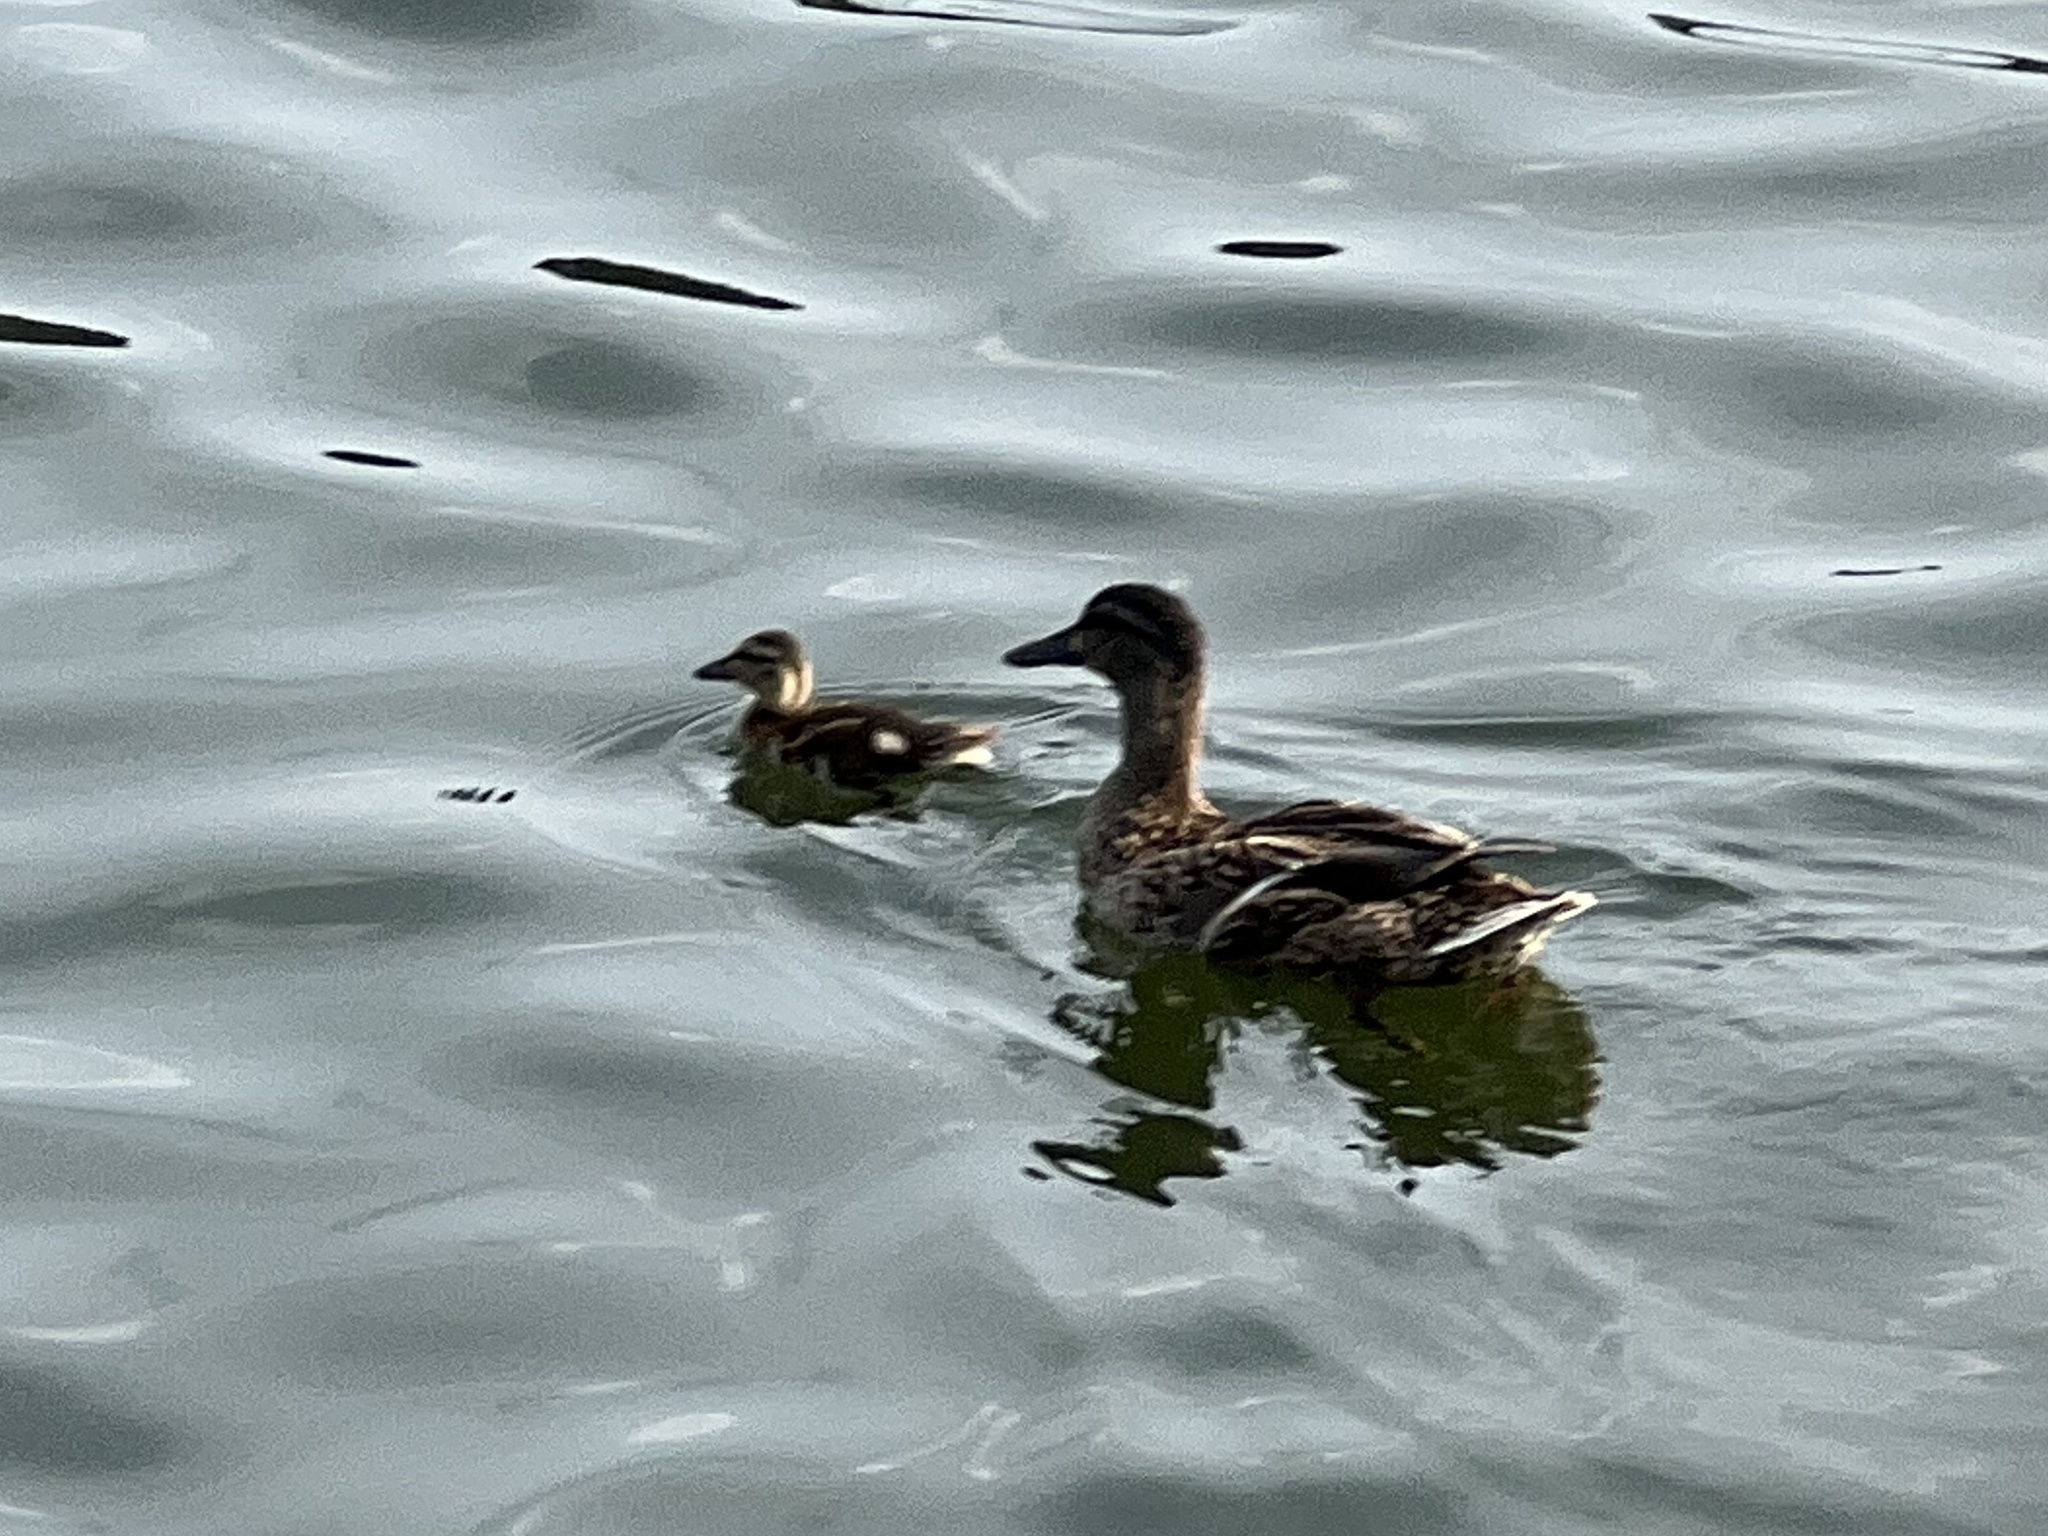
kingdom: Animalia
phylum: Chordata
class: Aves
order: Anseriformes
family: Anatidae
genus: Anas
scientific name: Anas platyrhynchos
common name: Mallard
